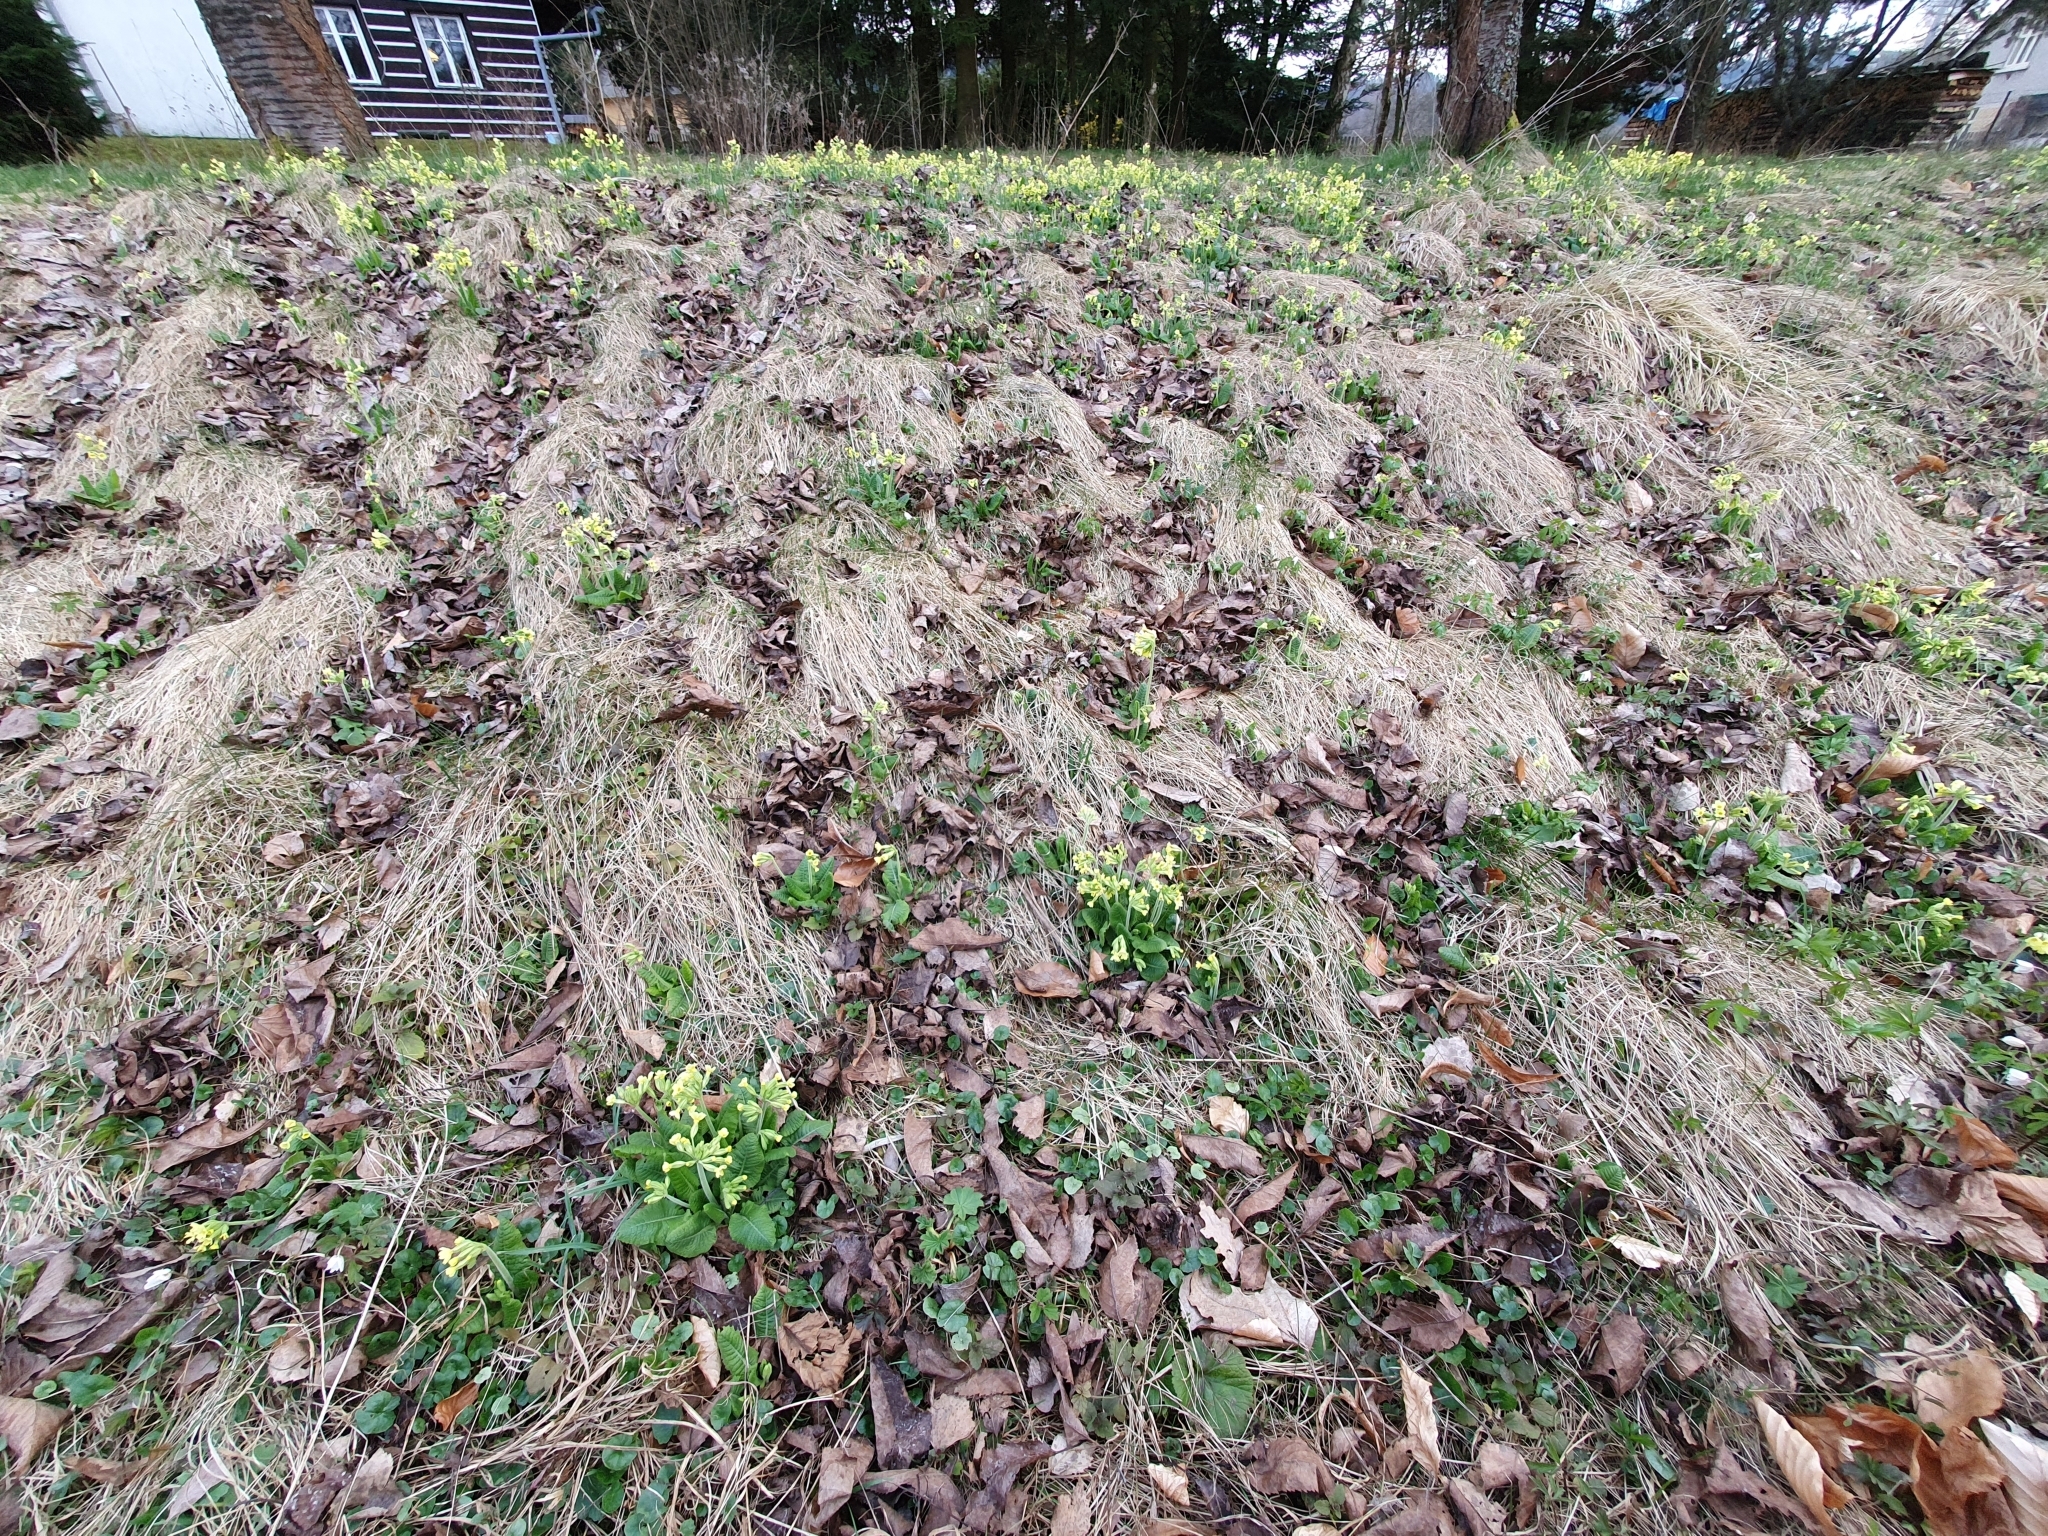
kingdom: Plantae
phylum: Tracheophyta
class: Magnoliopsida
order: Ericales
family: Primulaceae
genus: Primula
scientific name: Primula elatior
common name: Oxlip
